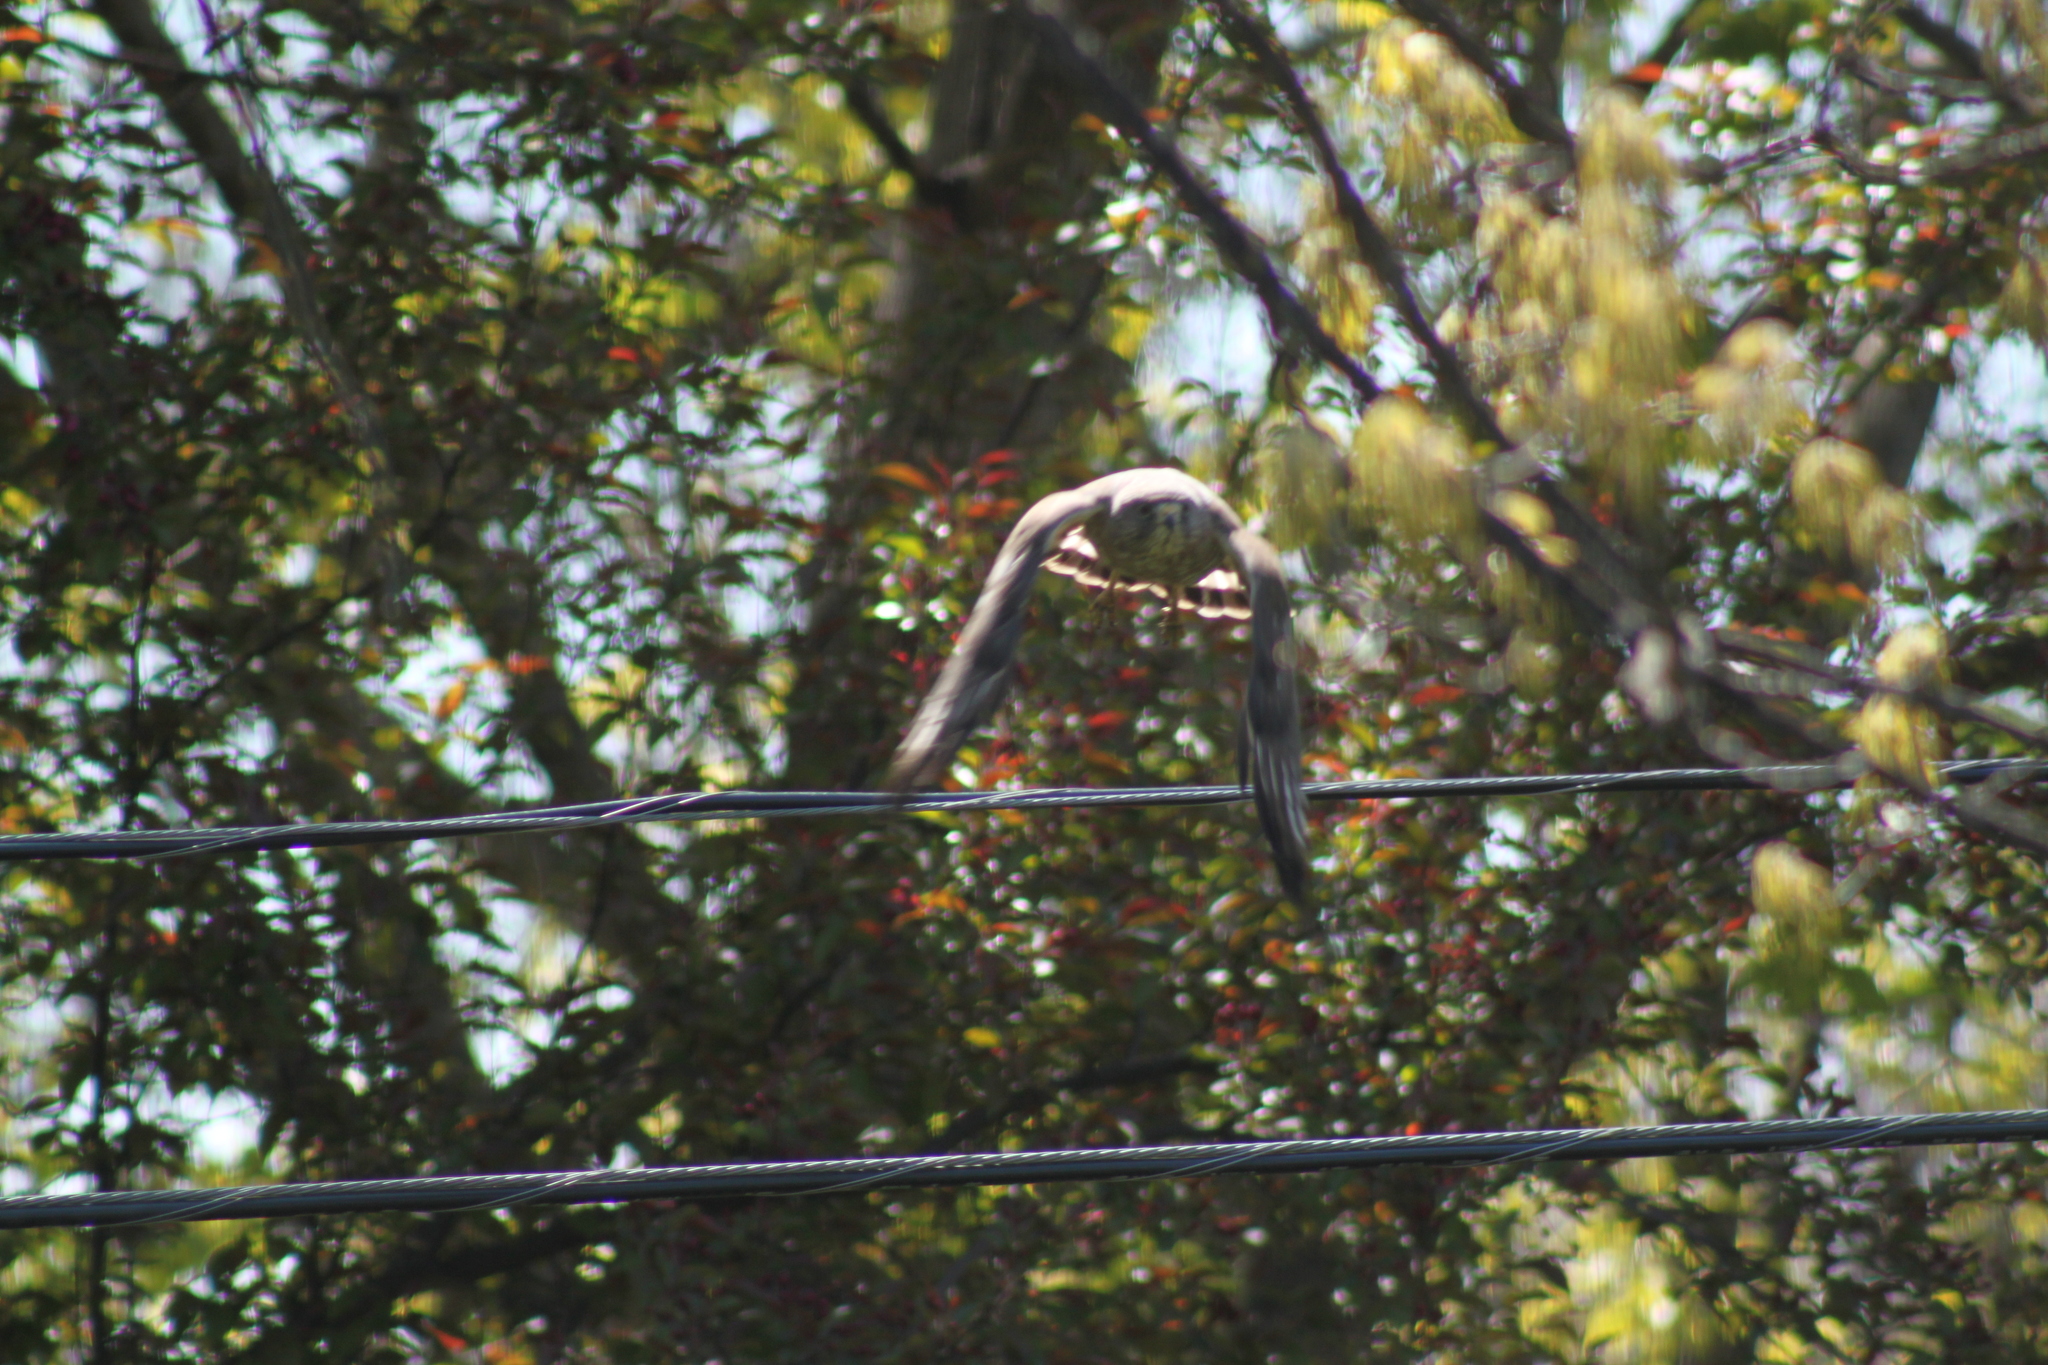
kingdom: Animalia
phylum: Chordata
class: Aves
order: Accipitriformes
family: Accipitridae
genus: Buteo
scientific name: Buteo platypterus
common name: Broad-winged hawk
